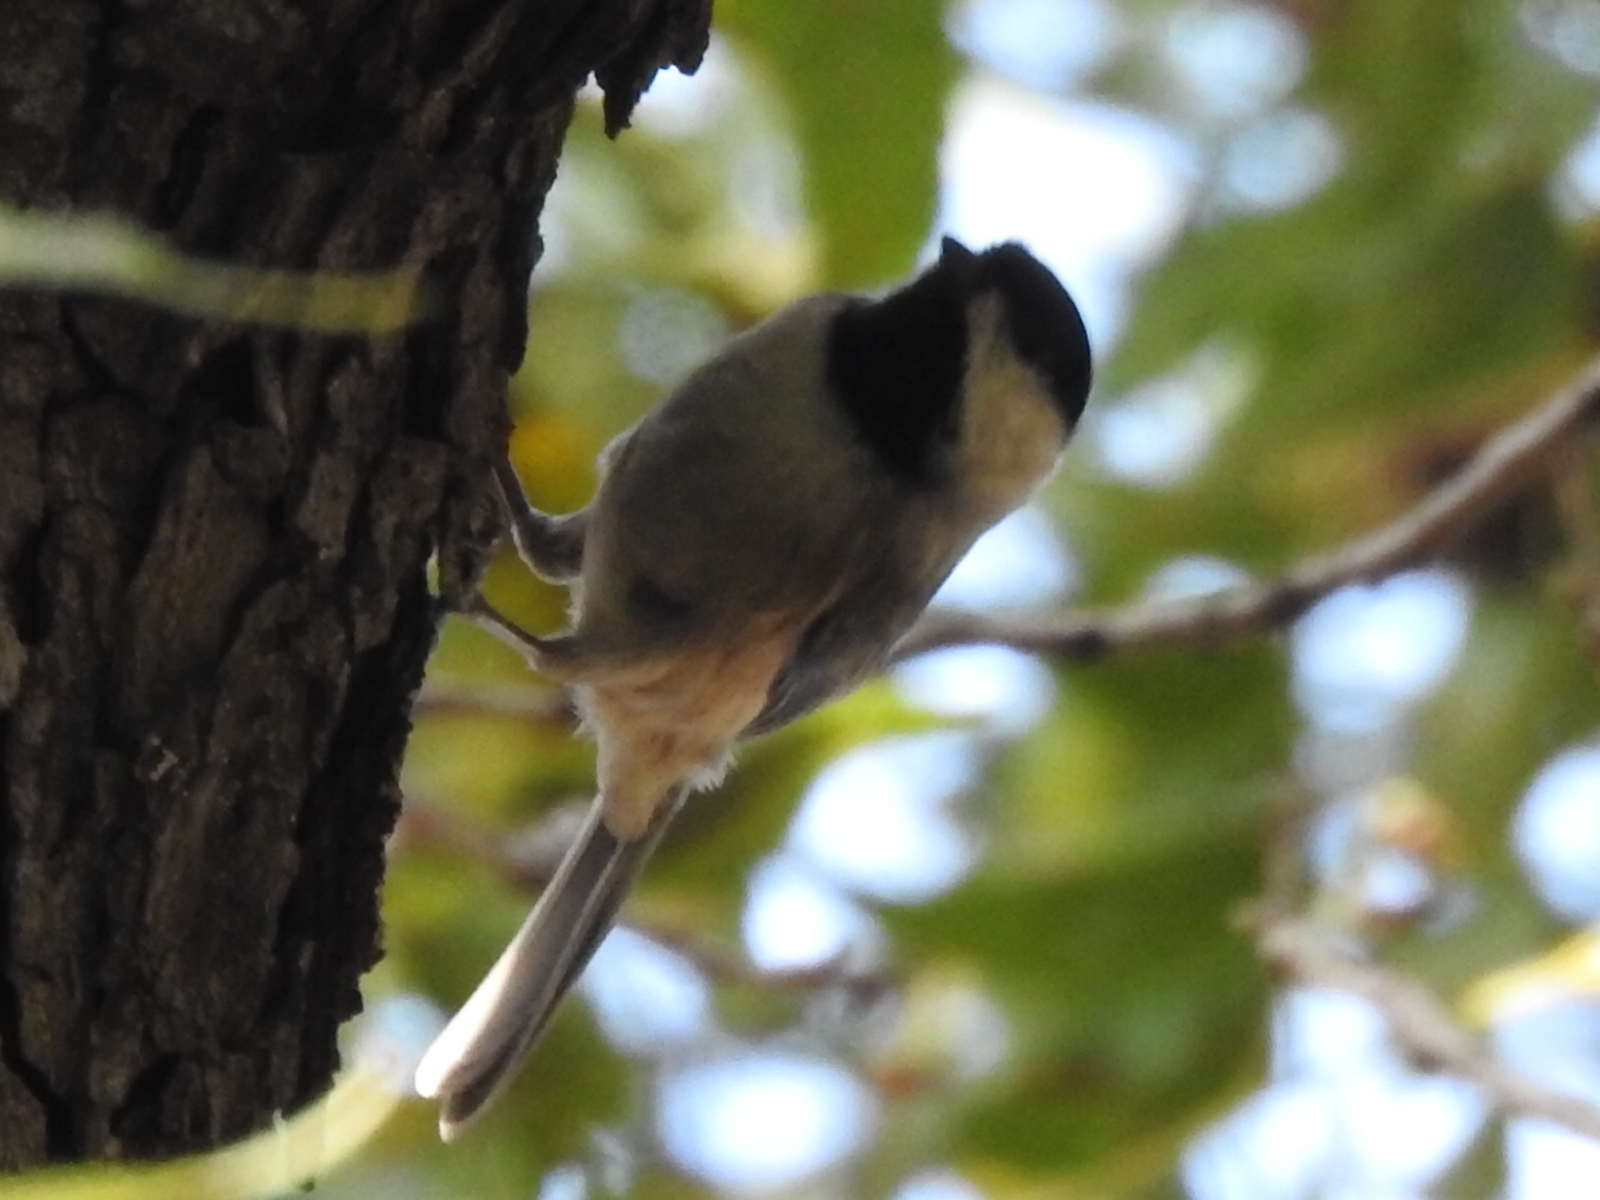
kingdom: Animalia
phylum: Chordata
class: Aves
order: Passeriformes
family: Paridae
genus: Poecile
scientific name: Poecile carolinensis
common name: Carolina chickadee
